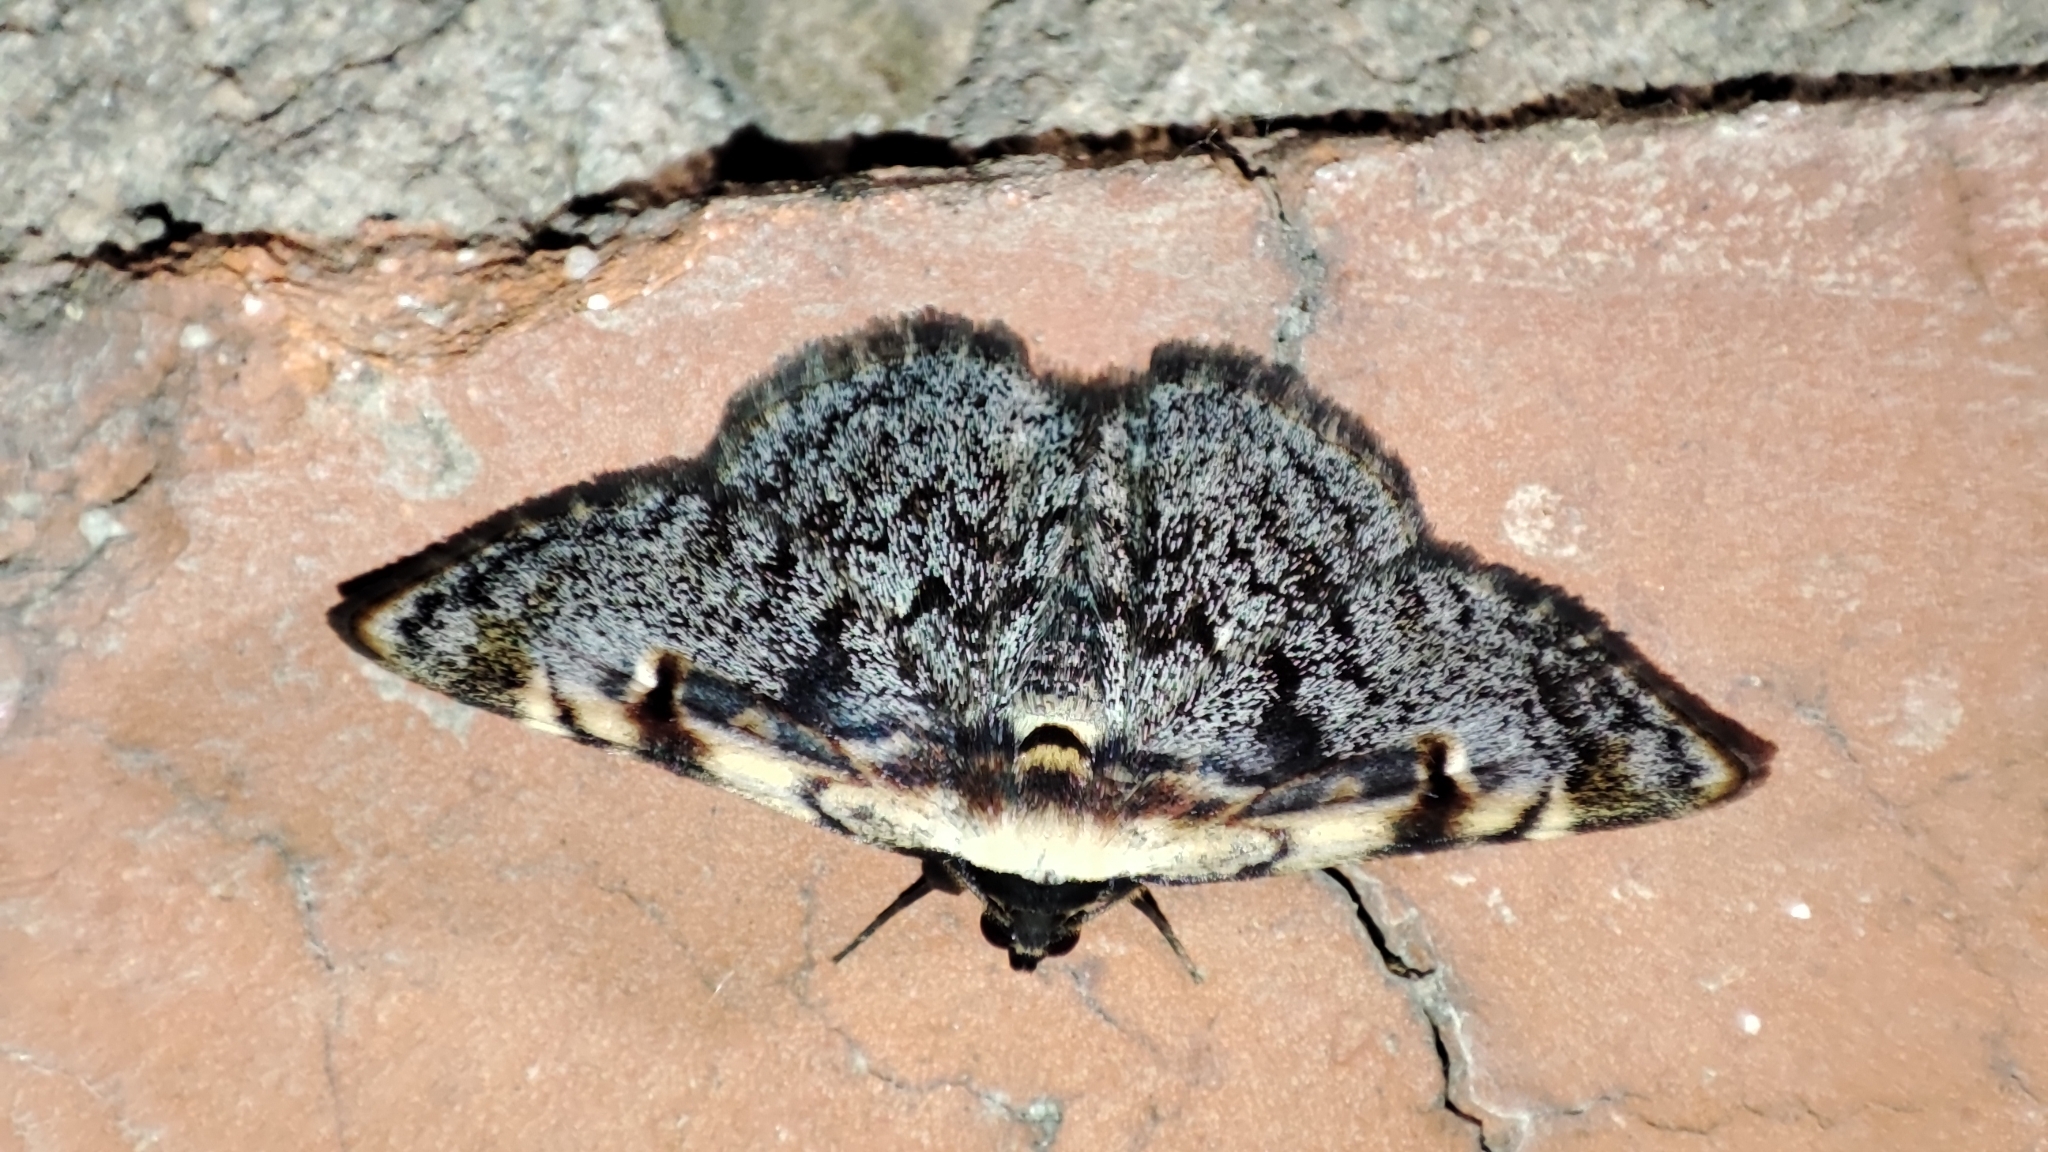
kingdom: Animalia
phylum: Arthropoda
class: Insecta
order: Lepidoptera
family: Erebidae
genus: Hypostrotia
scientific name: Hypostrotia cinerea
